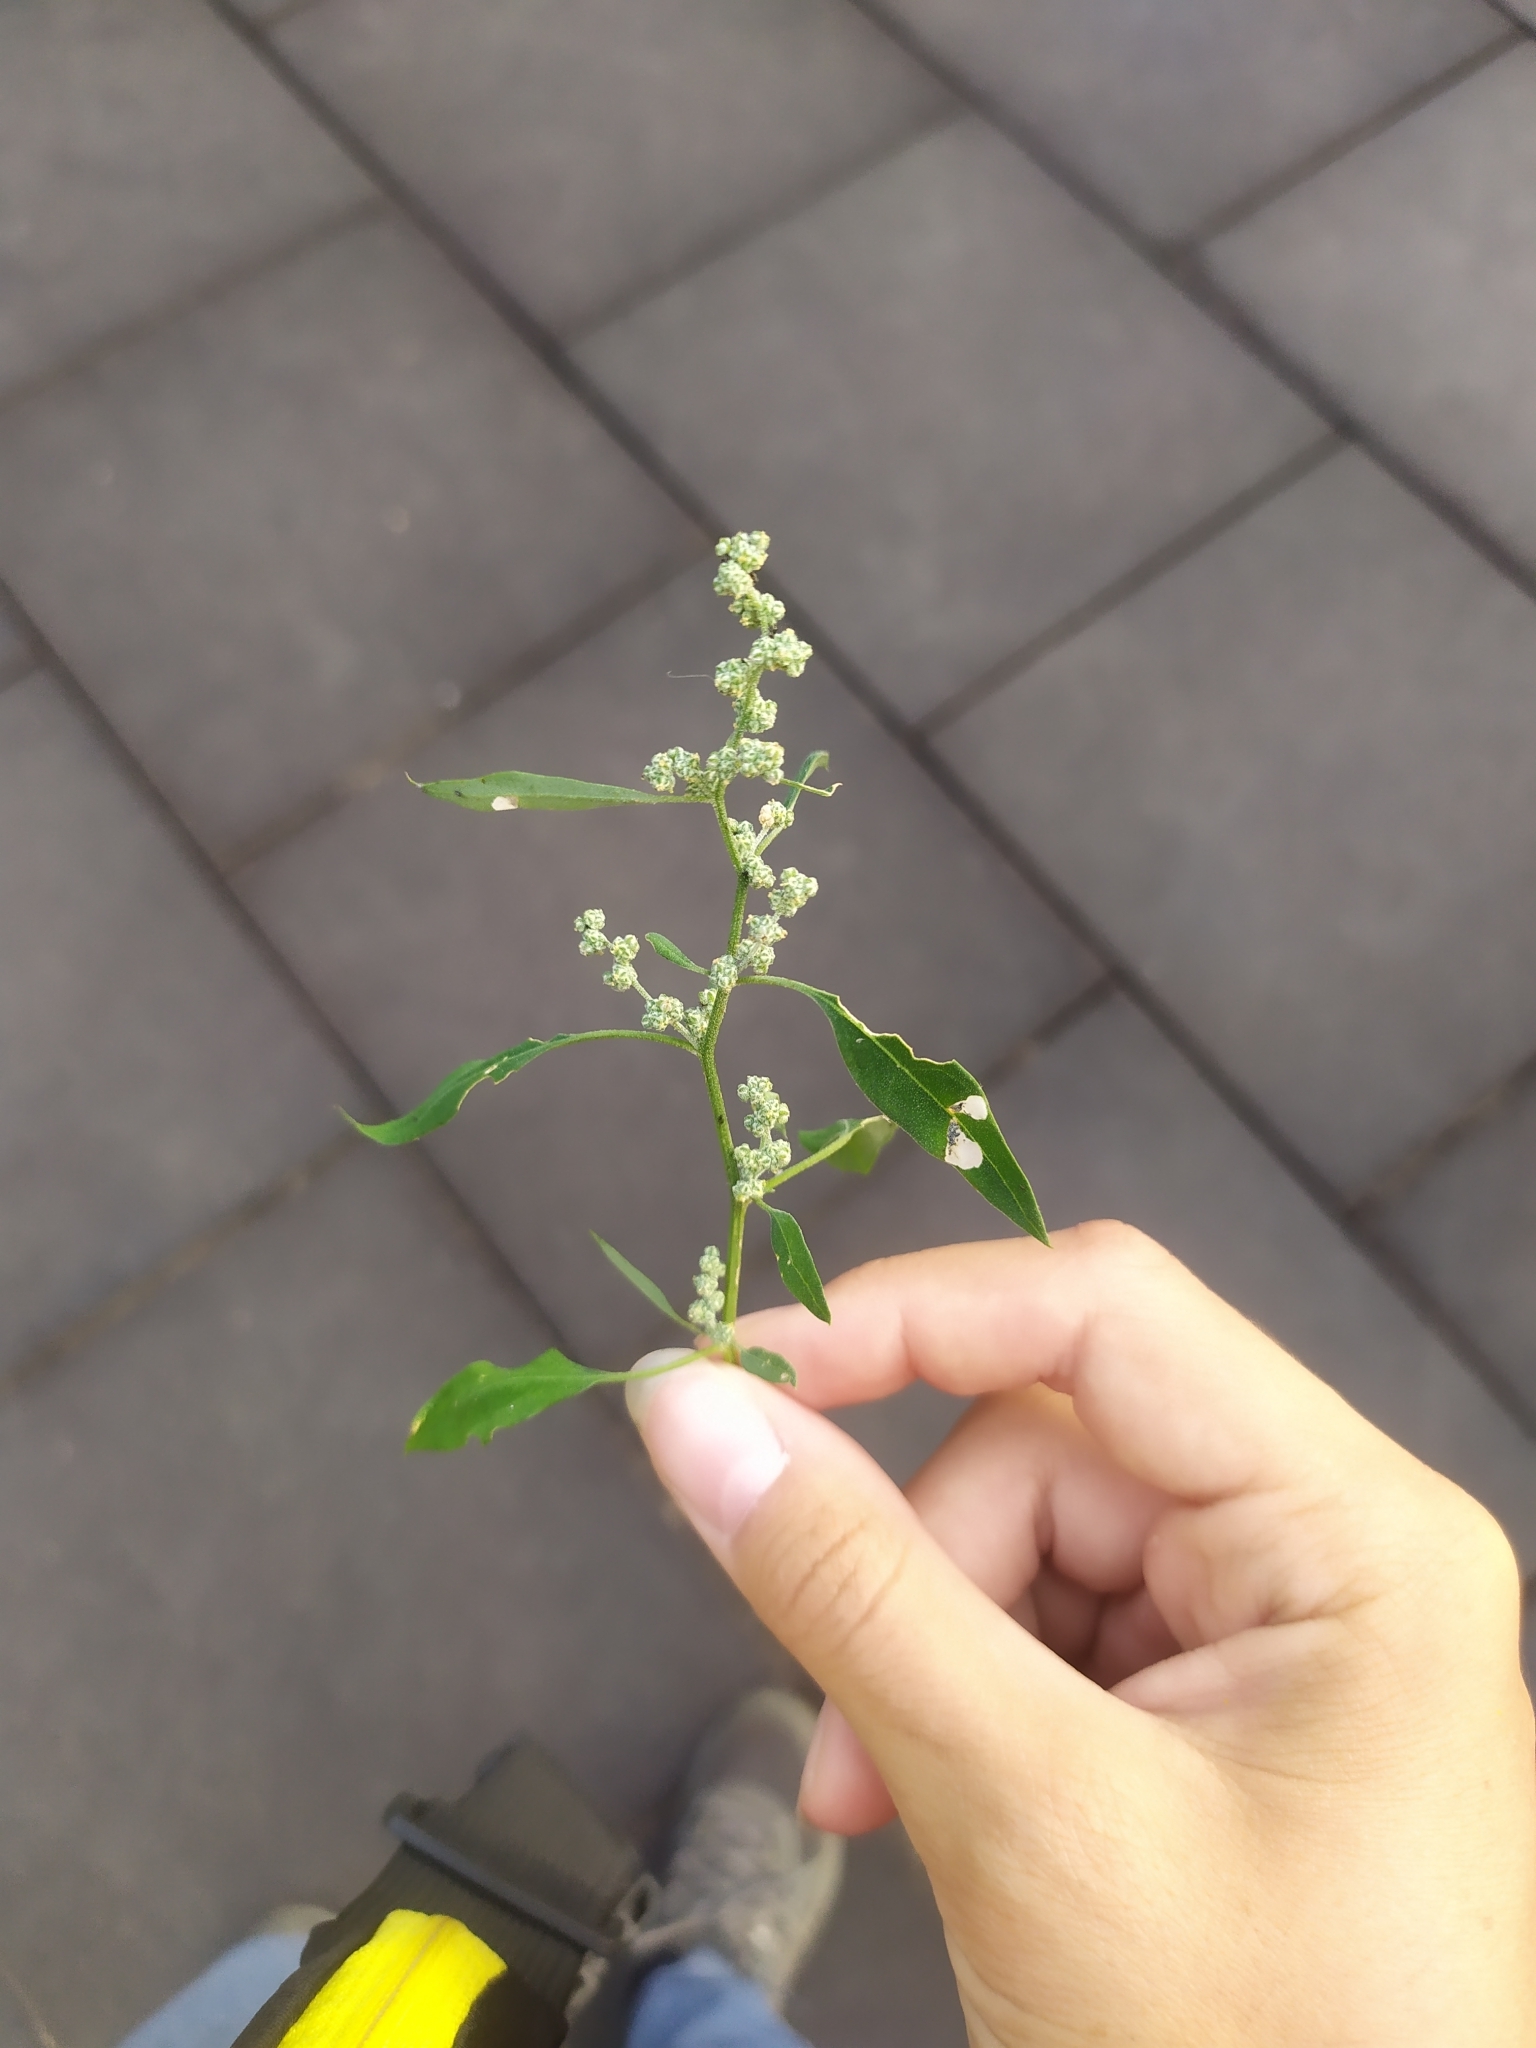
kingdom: Plantae
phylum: Tracheophyta
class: Magnoliopsida
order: Caryophyllales
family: Amaranthaceae
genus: Chenopodium
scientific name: Chenopodium album
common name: Fat-hen
